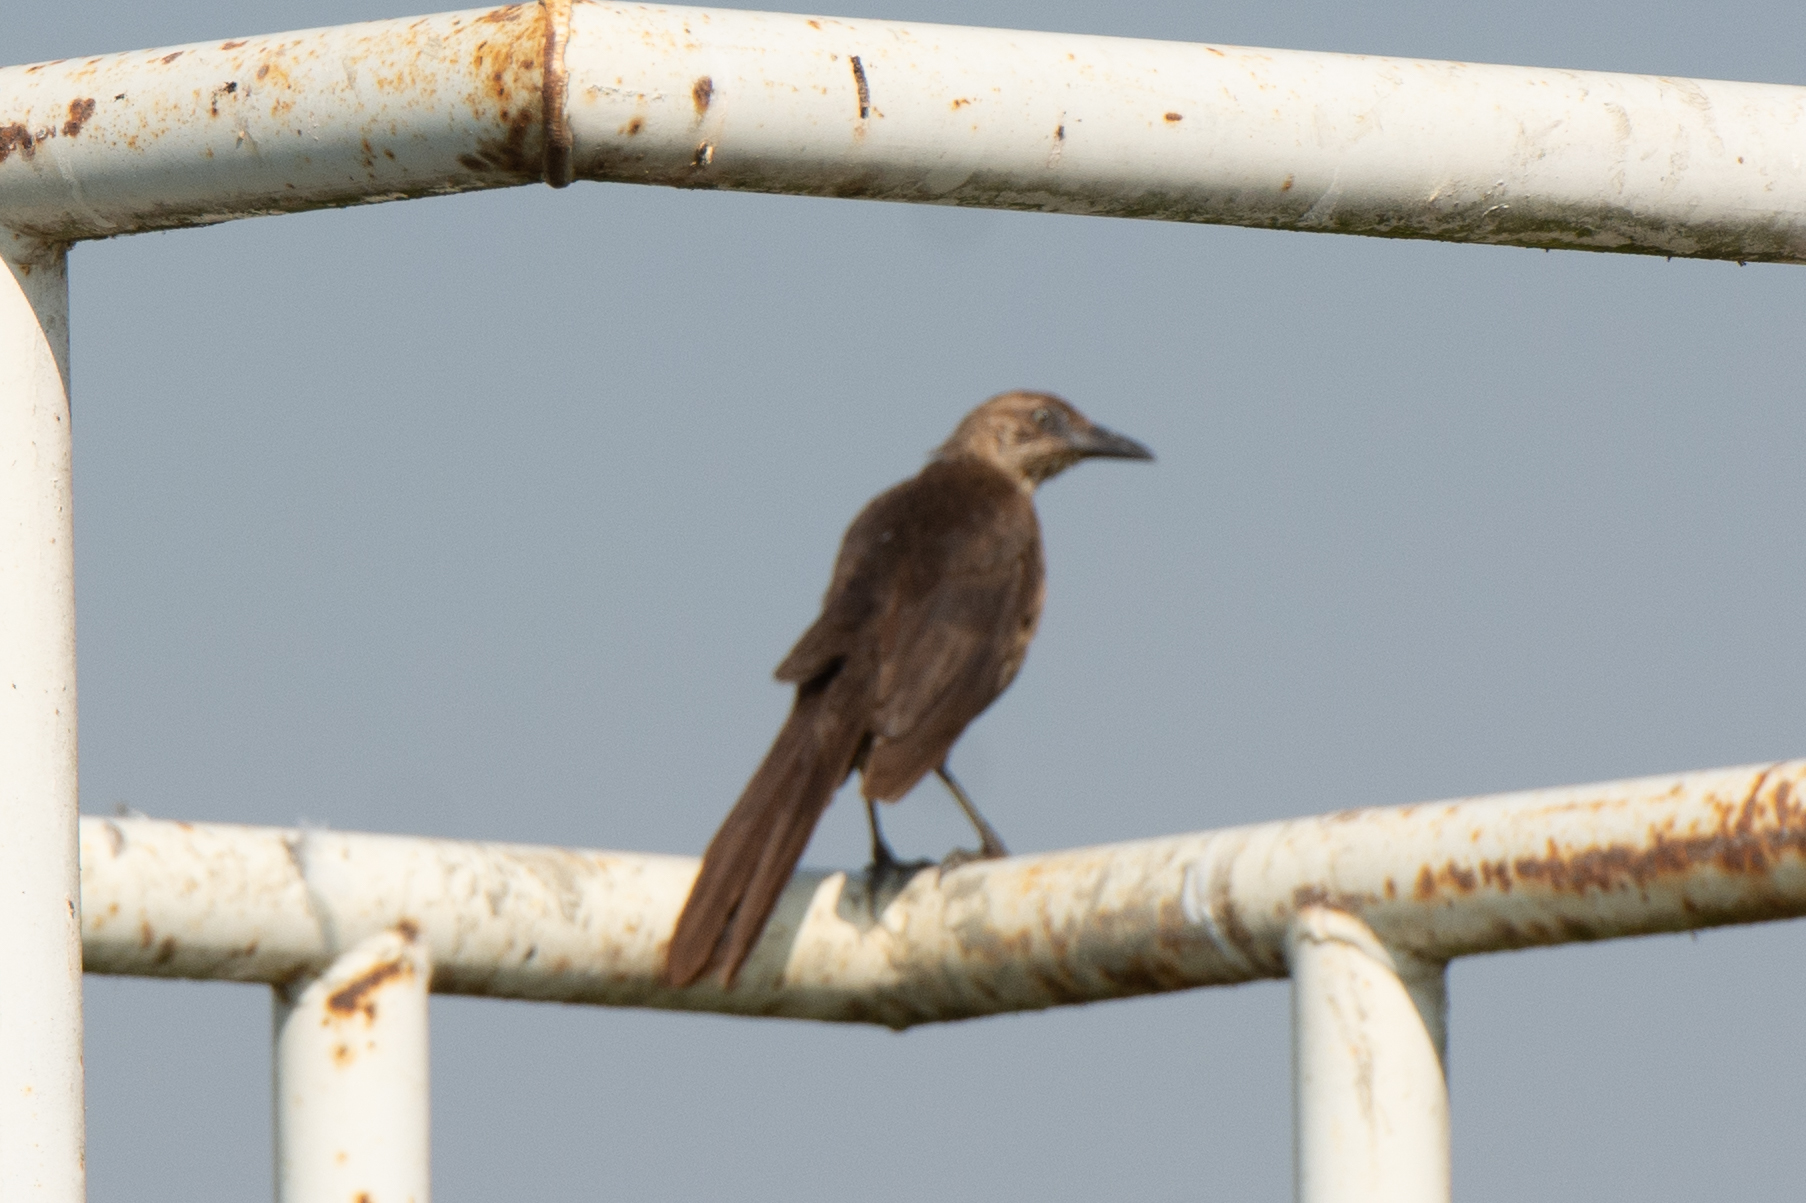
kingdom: Animalia
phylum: Chordata
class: Aves
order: Passeriformes
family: Icteridae
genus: Quiscalus
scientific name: Quiscalus mexicanus
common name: Great-tailed grackle
